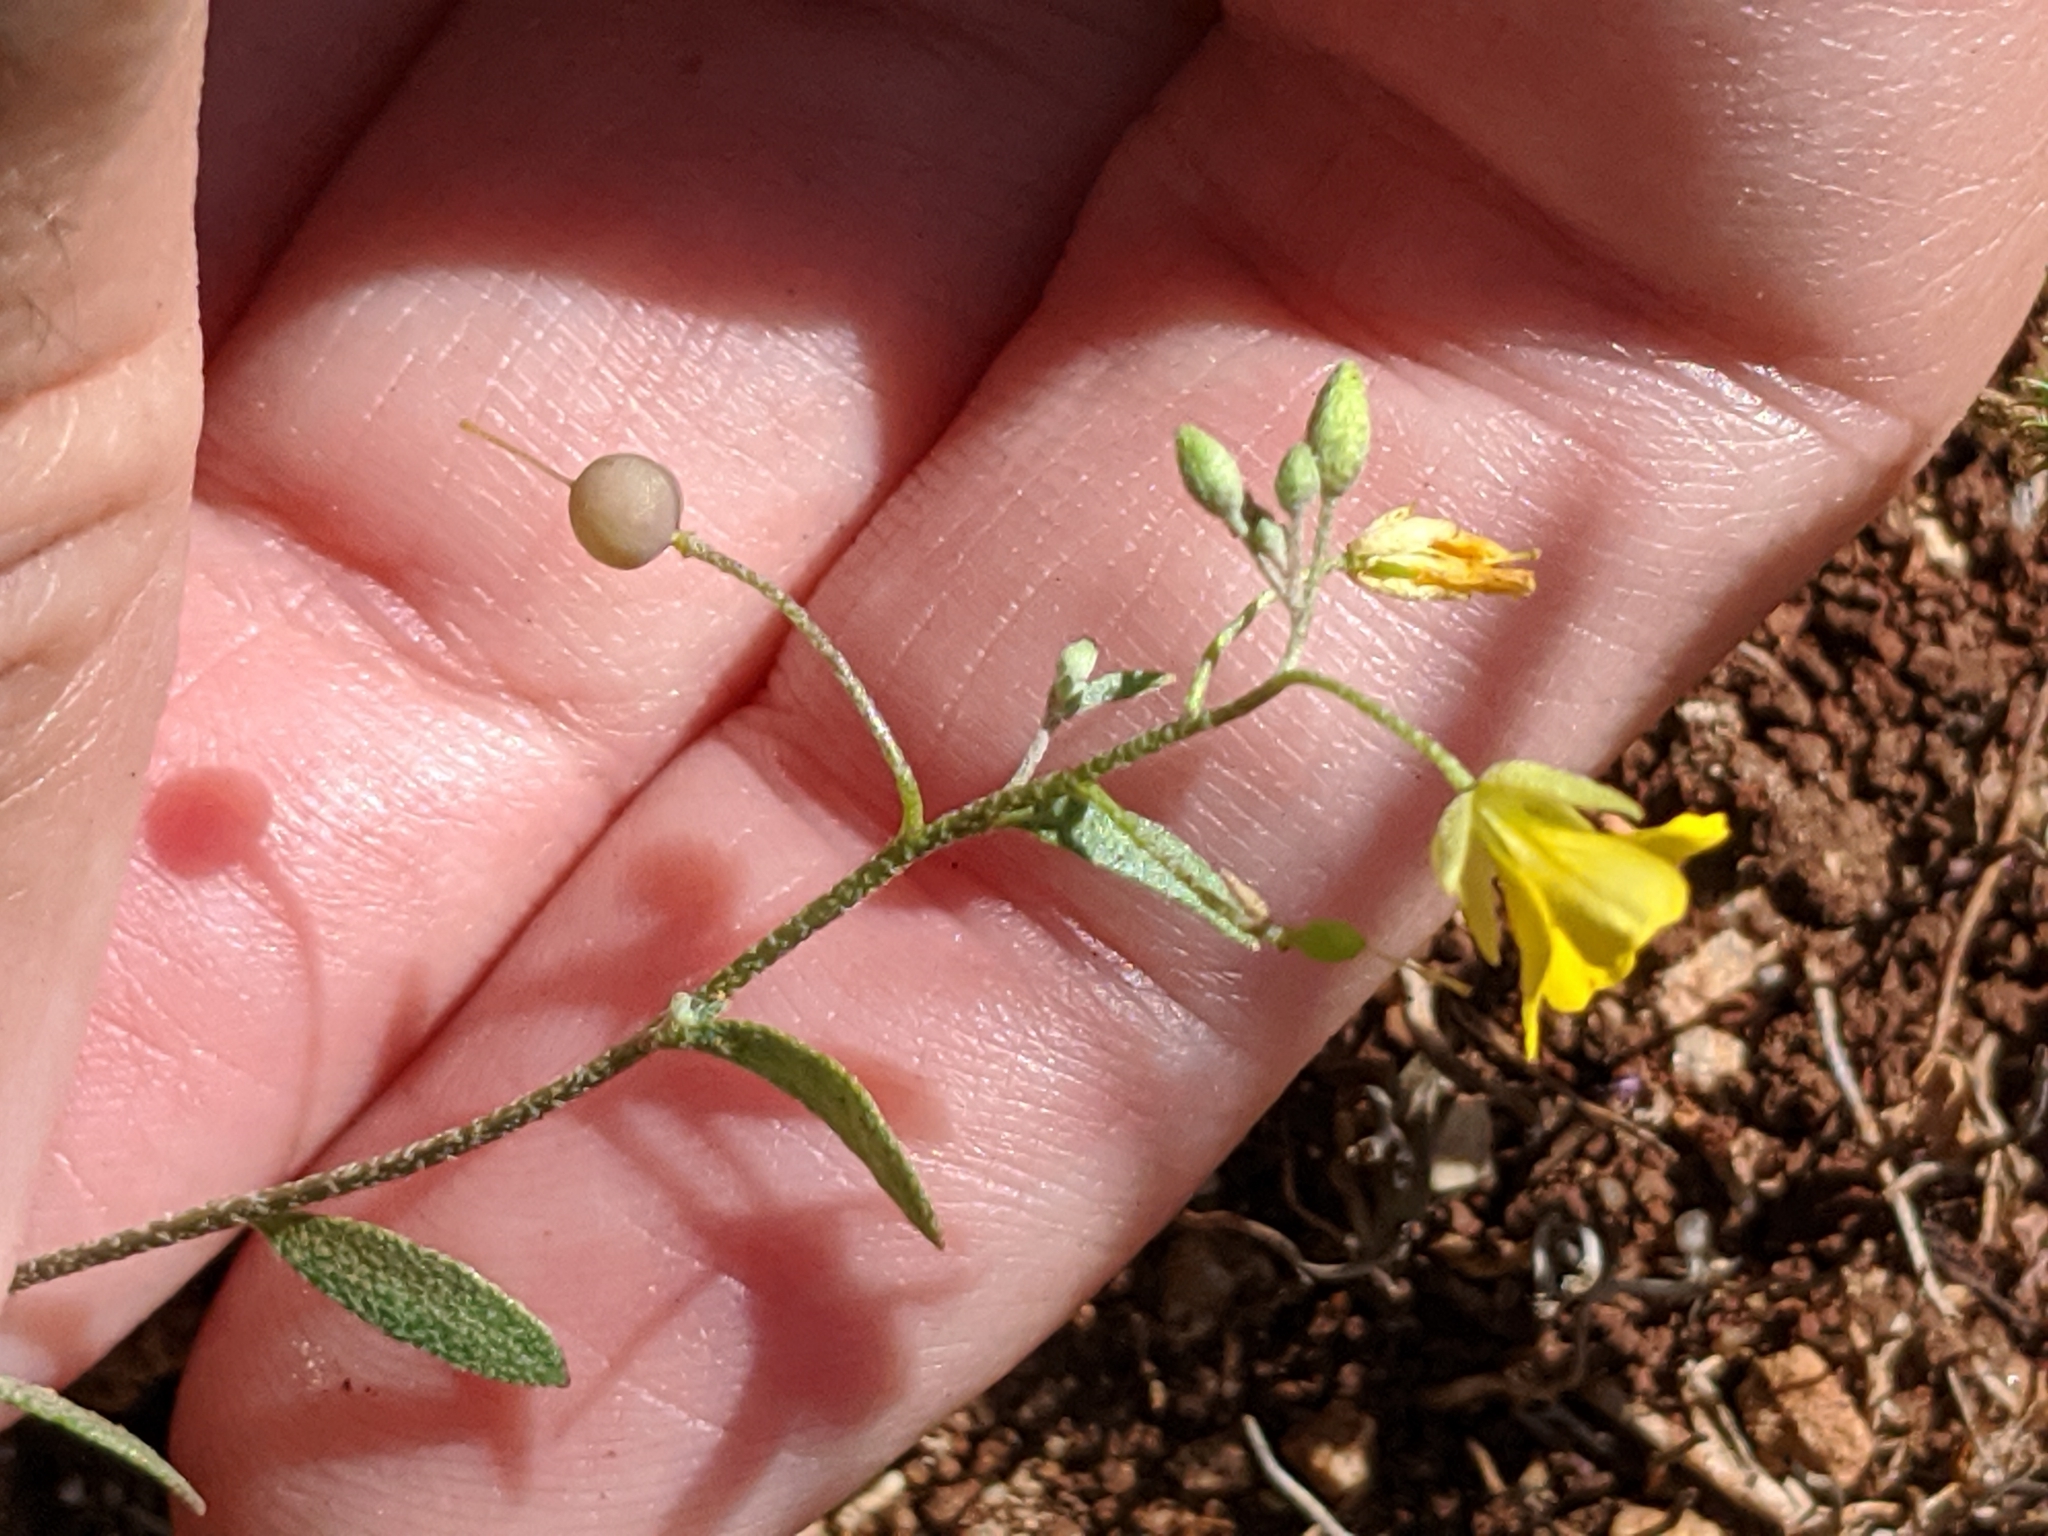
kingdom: Plantae
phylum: Tracheophyta
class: Magnoliopsida
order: Brassicales
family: Brassicaceae
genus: Physaria
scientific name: Physaria recurvata
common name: Gaslight bladderpod
